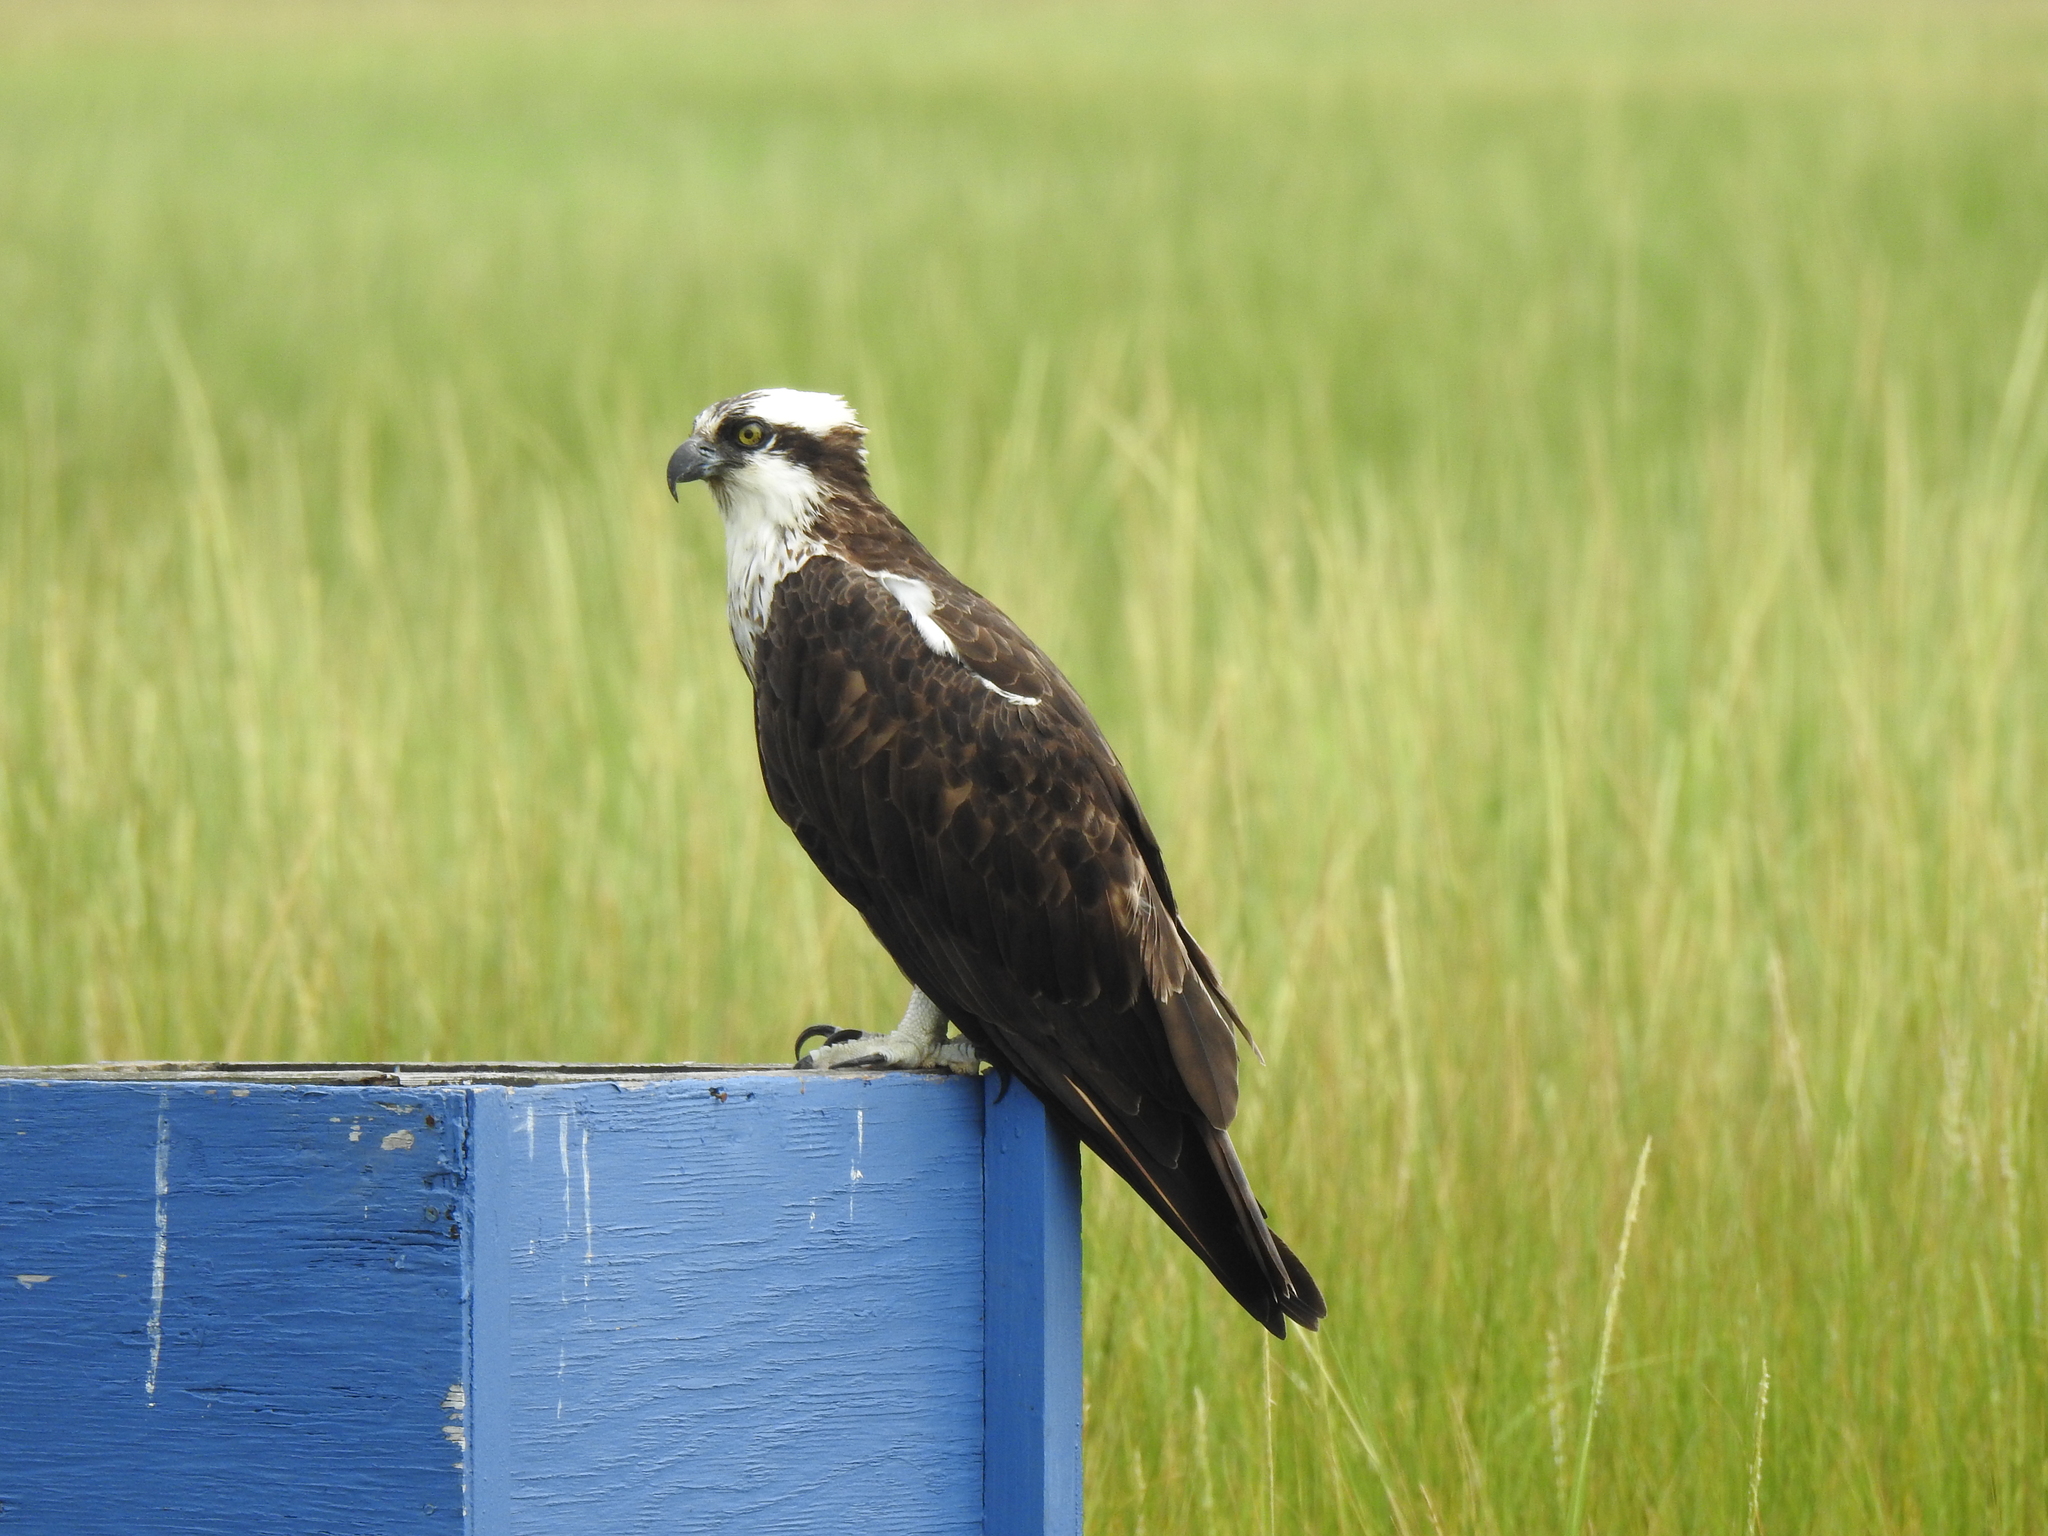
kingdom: Animalia
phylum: Chordata
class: Aves
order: Accipitriformes
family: Pandionidae
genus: Pandion
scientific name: Pandion haliaetus
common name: Osprey
